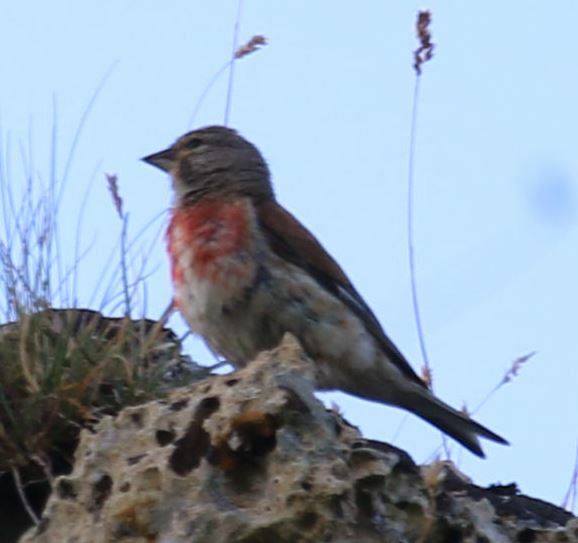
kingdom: Animalia
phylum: Chordata
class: Aves
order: Passeriformes
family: Fringillidae
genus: Linaria
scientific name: Linaria cannabina
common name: Common linnet
